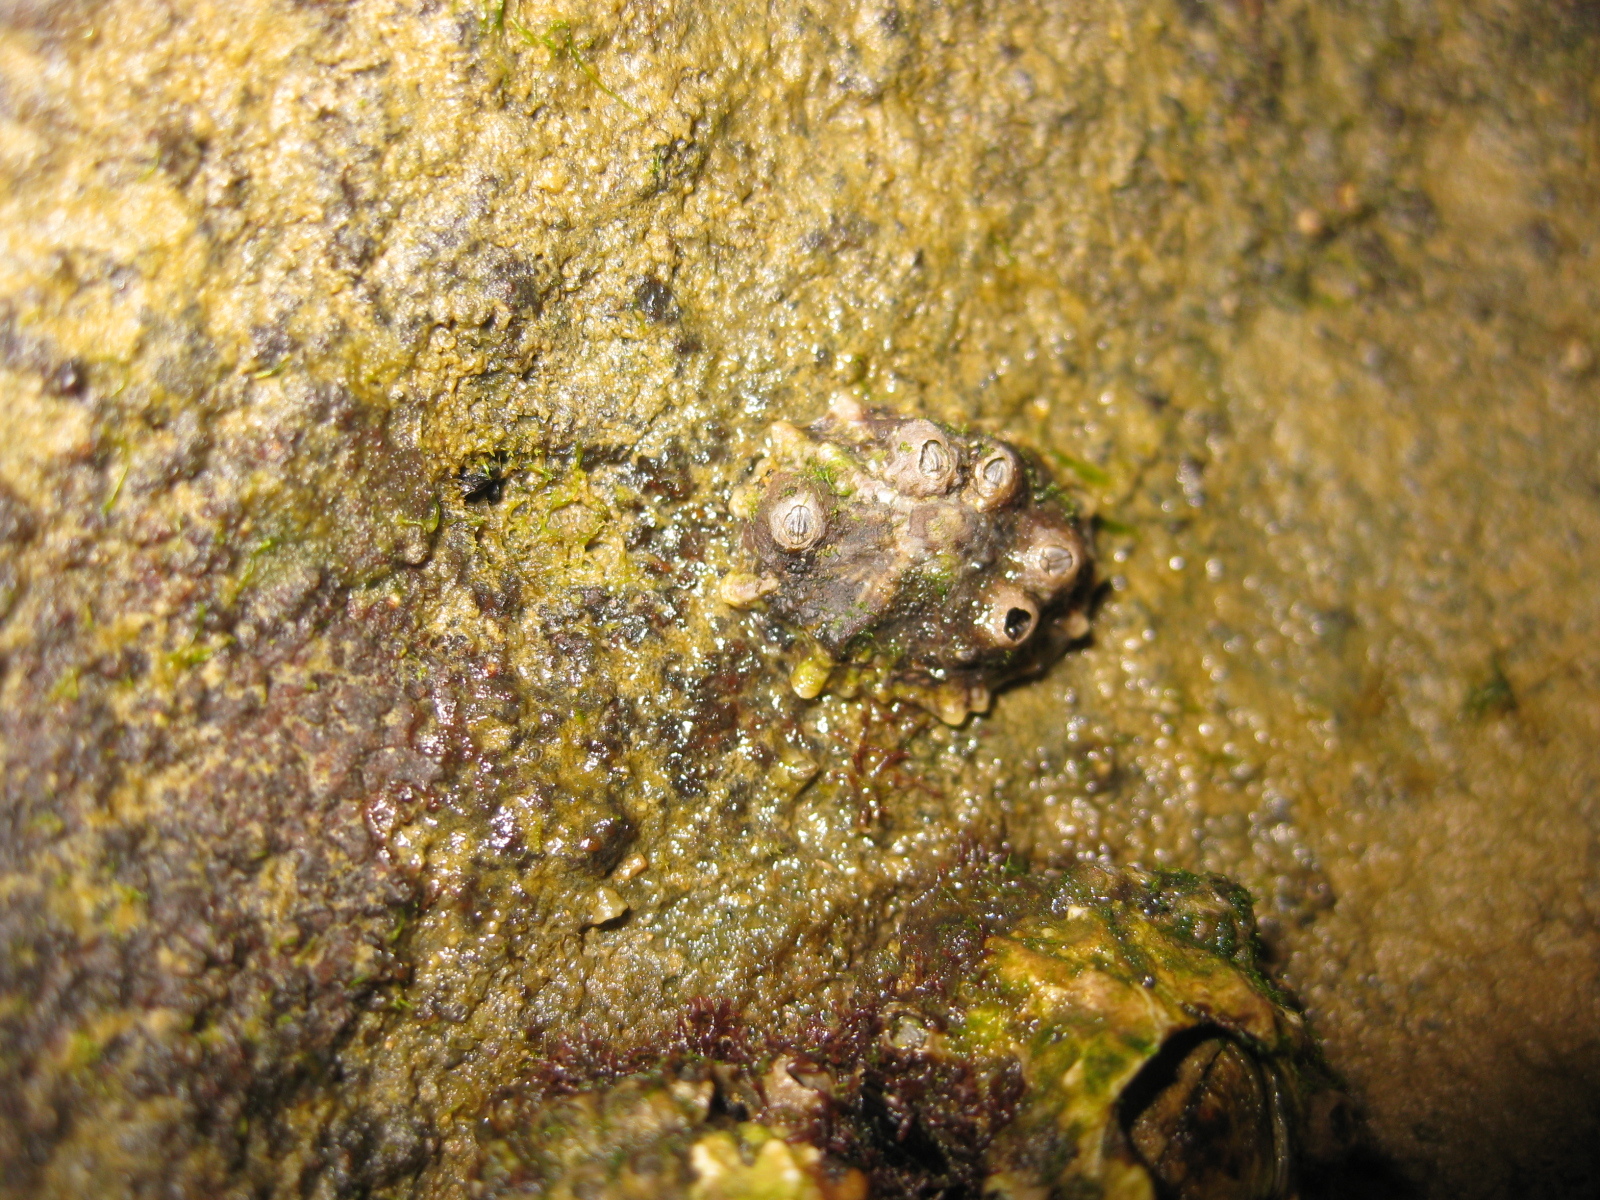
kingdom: Animalia
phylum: Mollusca
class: Gastropoda
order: Siphonariida
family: Siphonariidae
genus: Siphonaria
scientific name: Siphonaria australis
